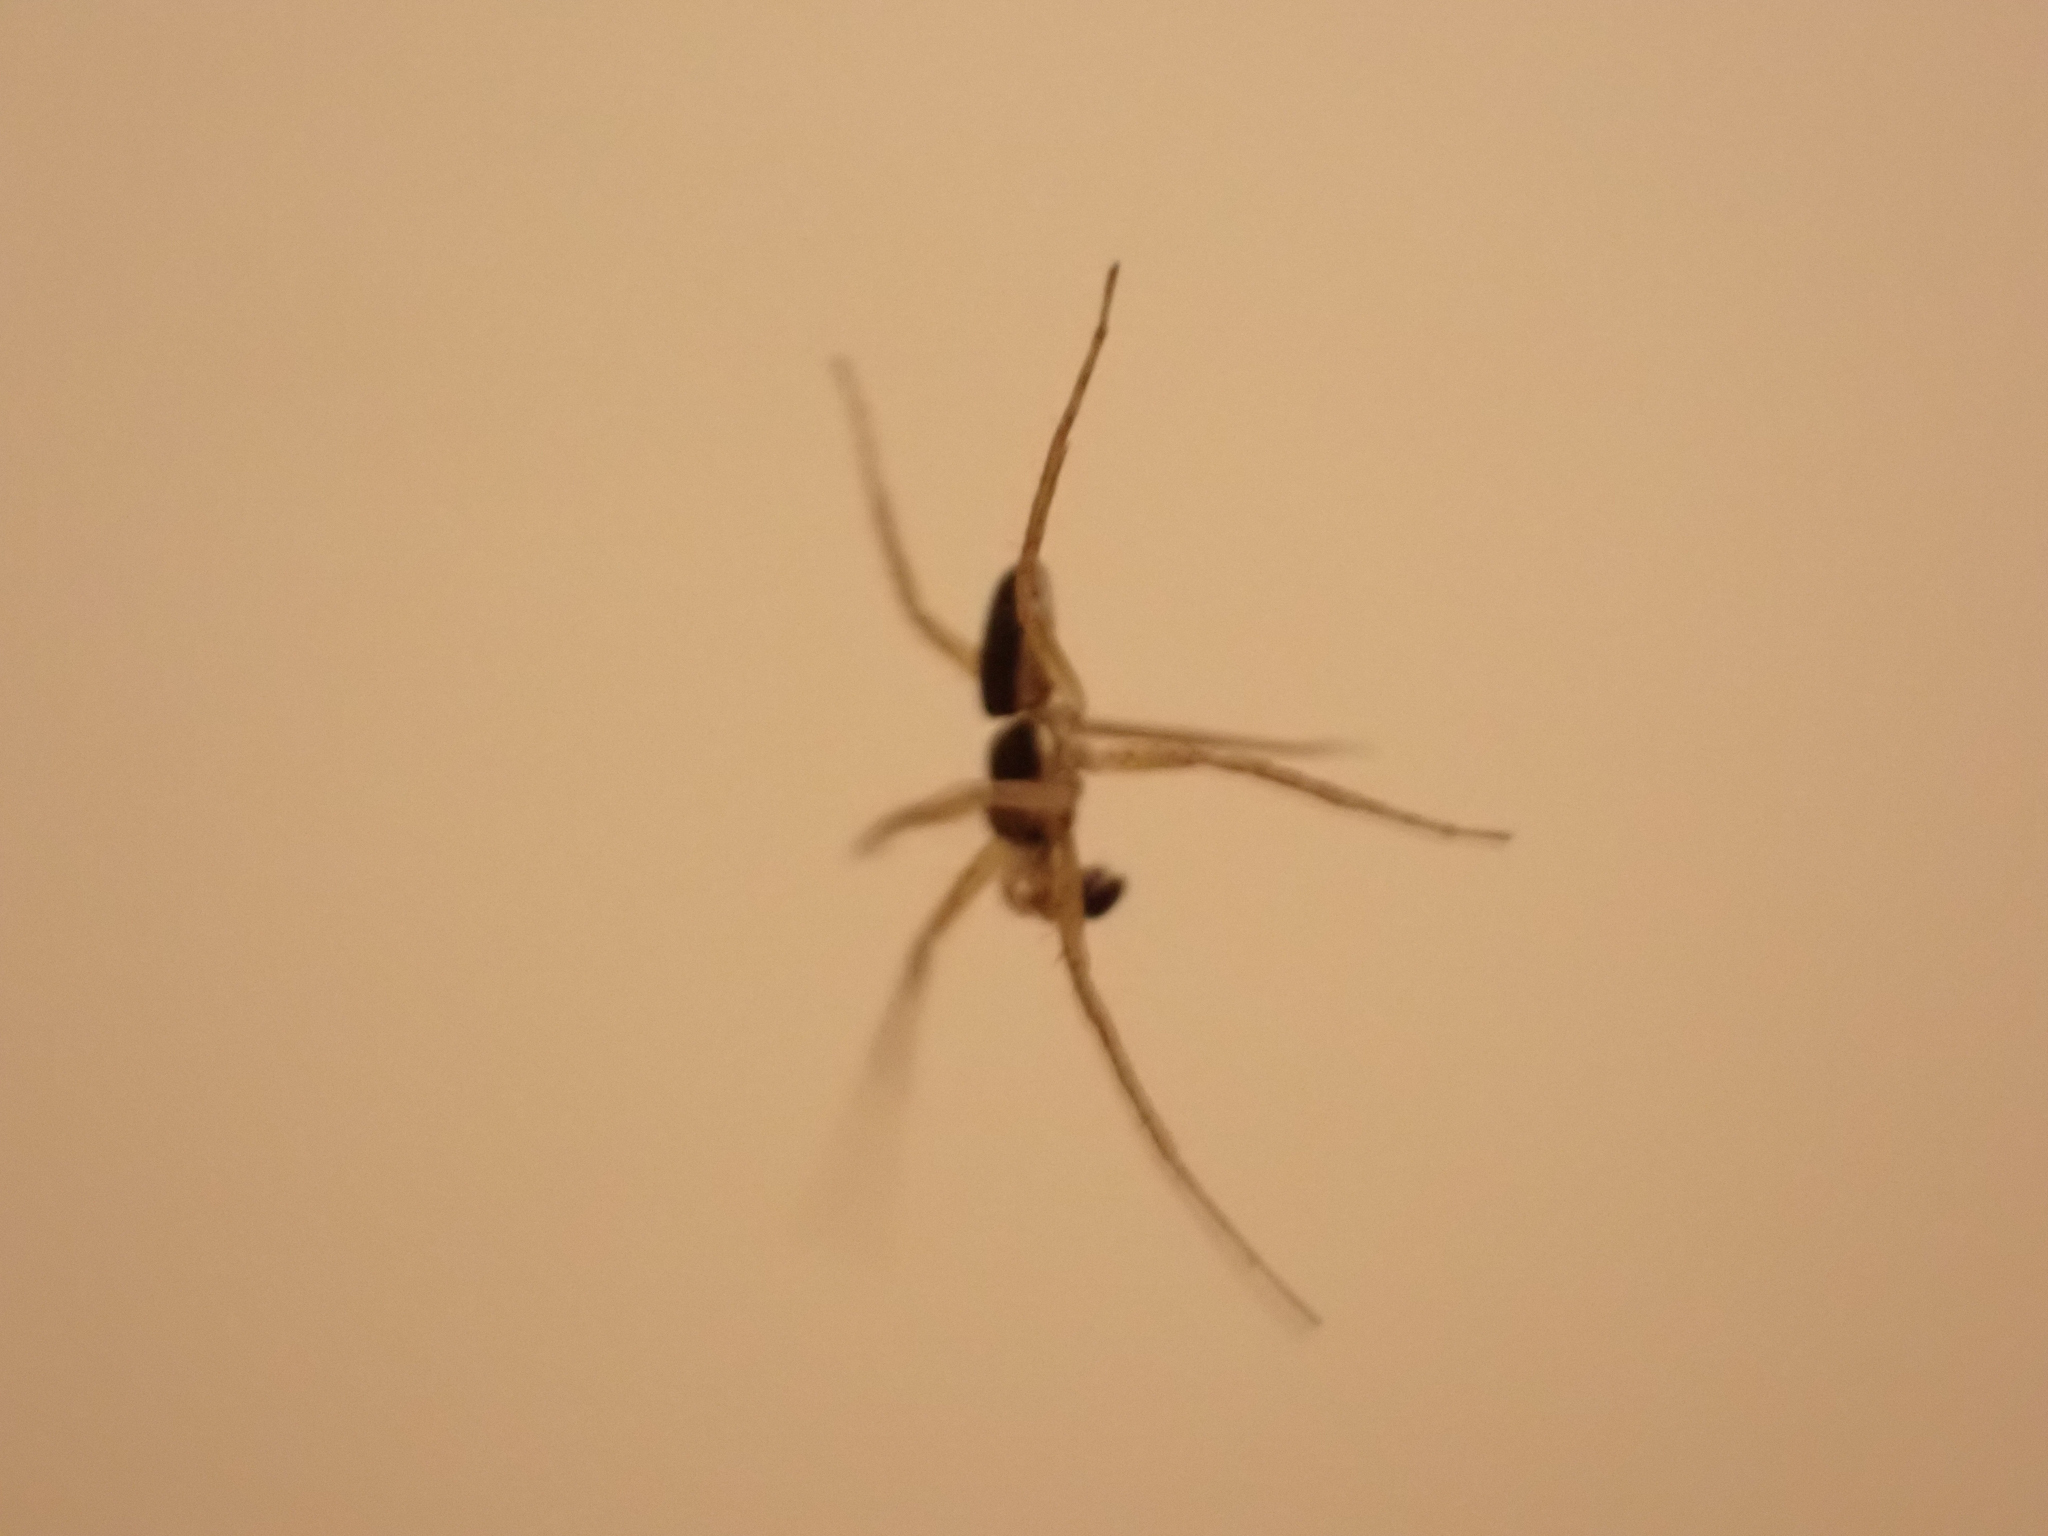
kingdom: Animalia
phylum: Arthropoda
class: Arachnida
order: Araneae
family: Philodromidae
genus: Philodromus
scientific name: Philodromus dispar
